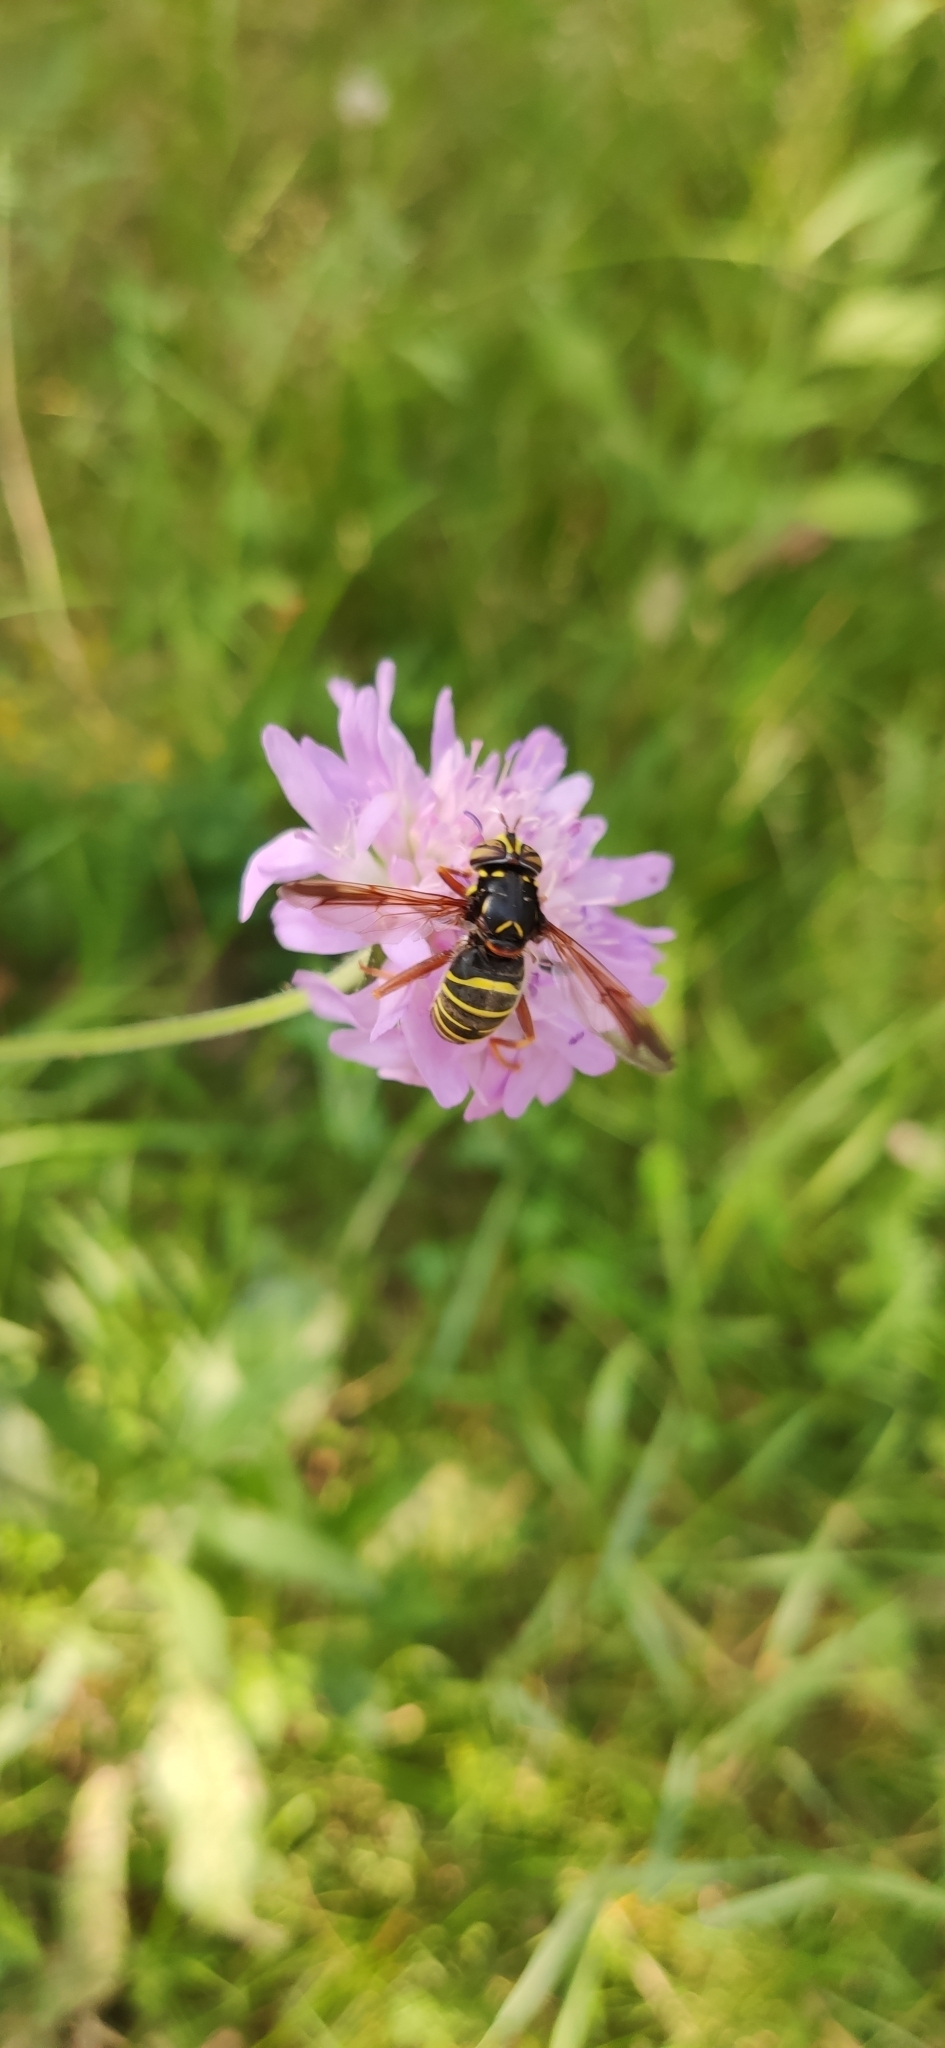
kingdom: Animalia
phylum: Arthropoda
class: Insecta
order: Diptera
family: Syrphidae
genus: Spilomyia
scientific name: Spilomyia diophthalma
